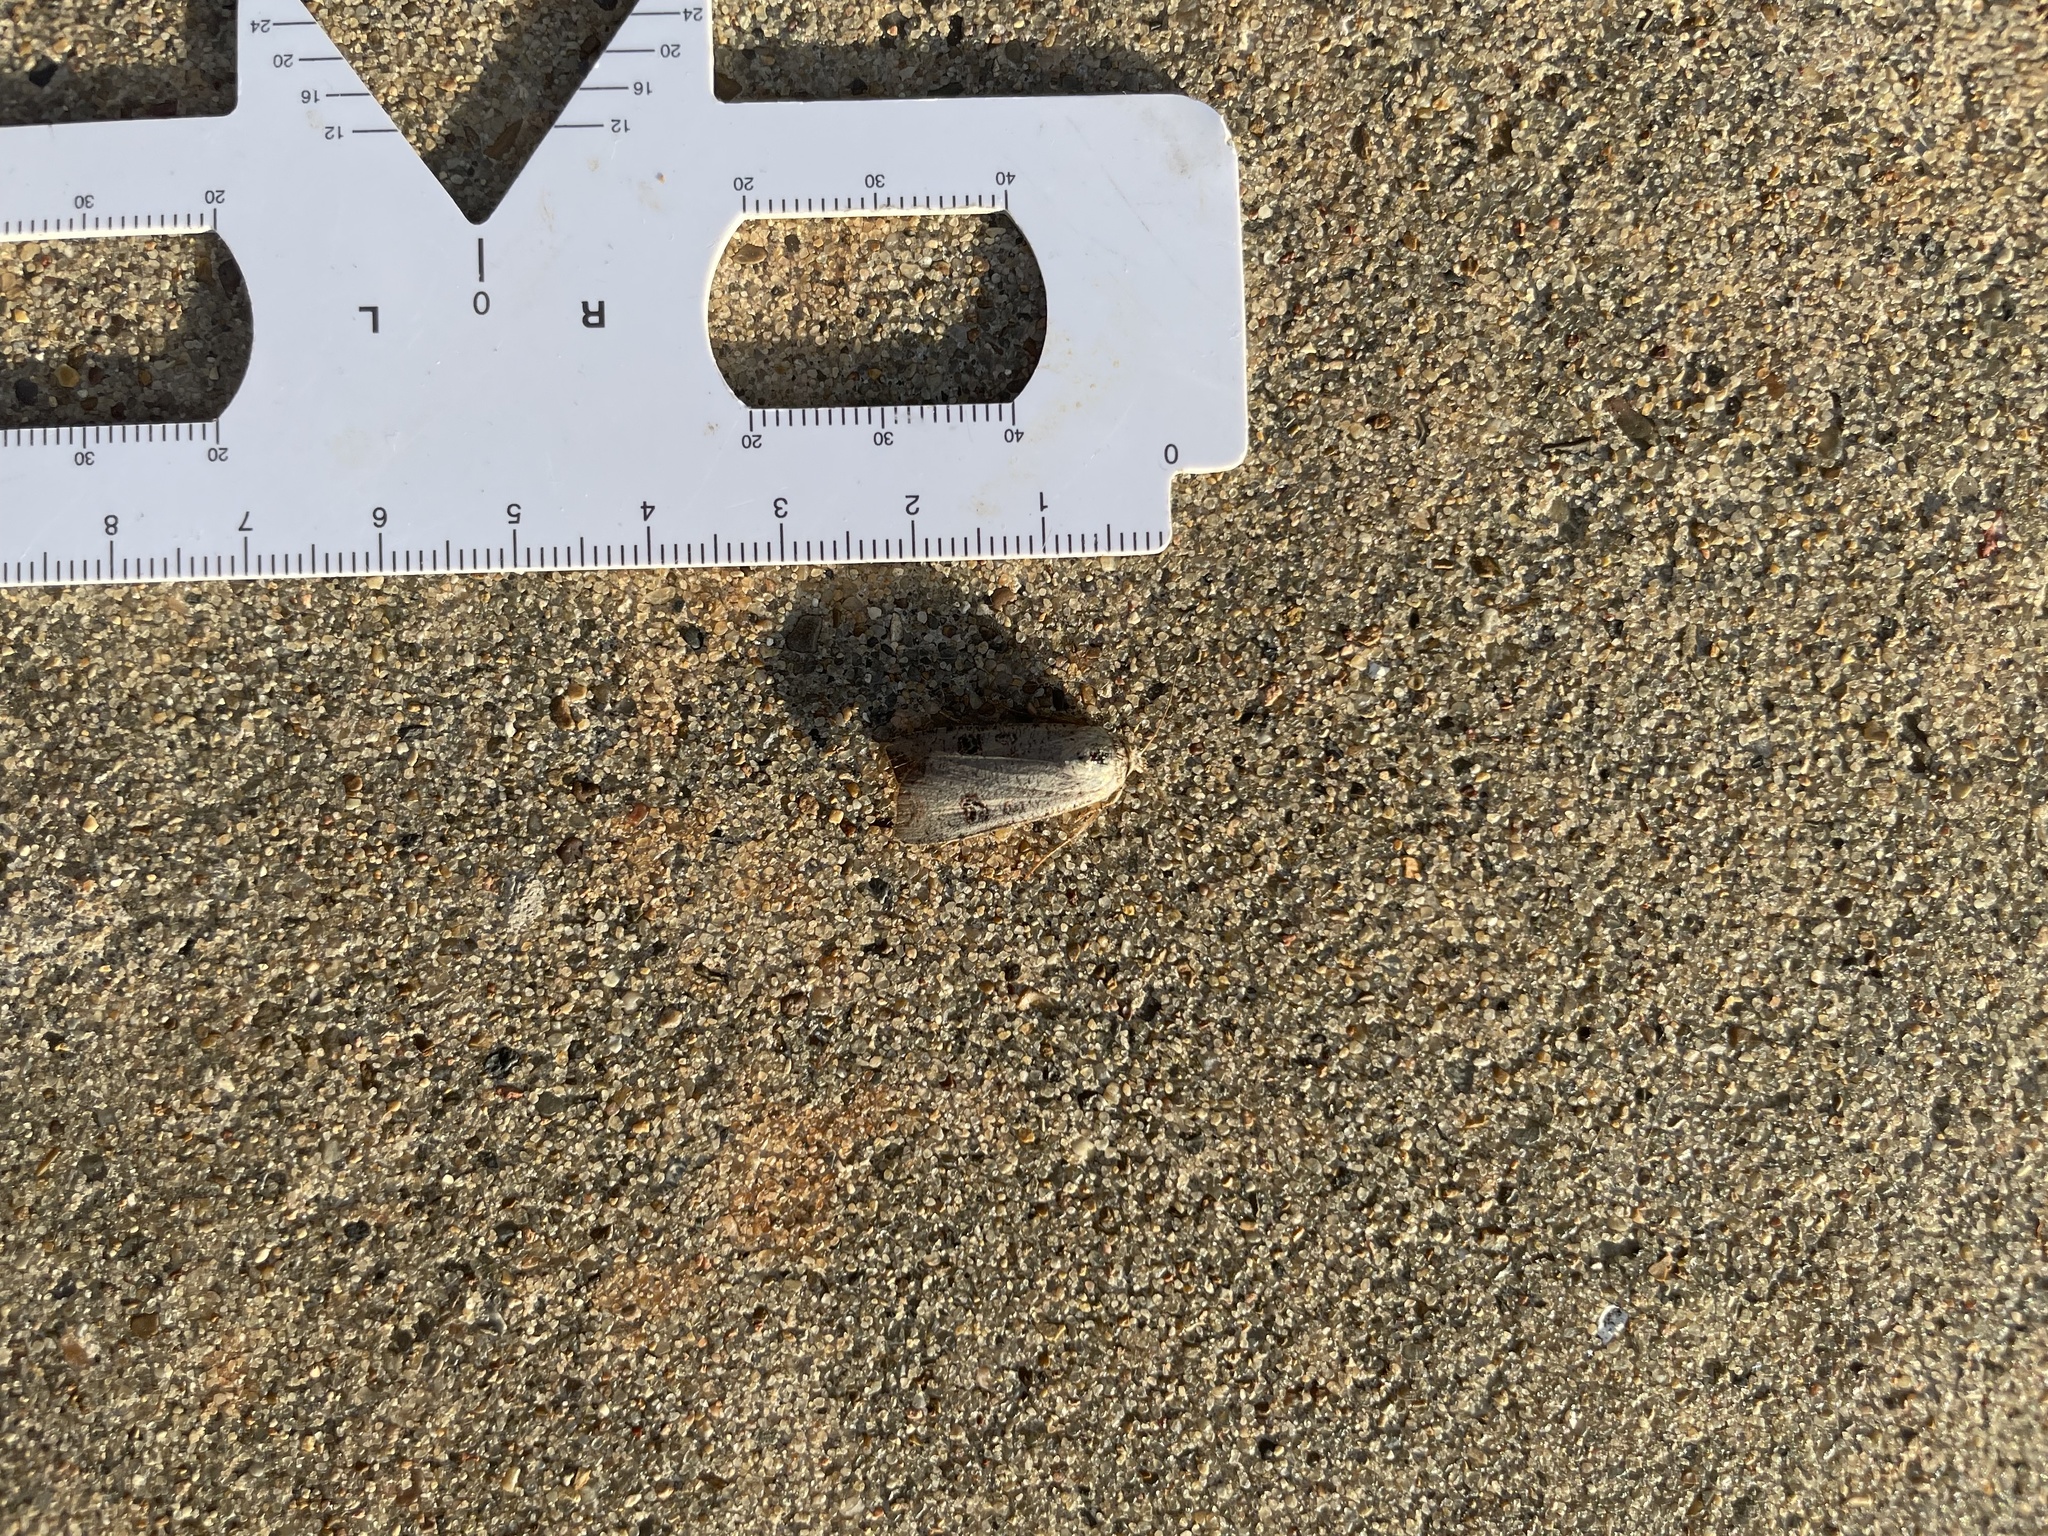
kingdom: Animalia
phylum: Arthropoda
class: Insecta
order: Lepidoptera
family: Noctuidae
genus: Anicla
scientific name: Anicla infecta
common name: Green cutworm
